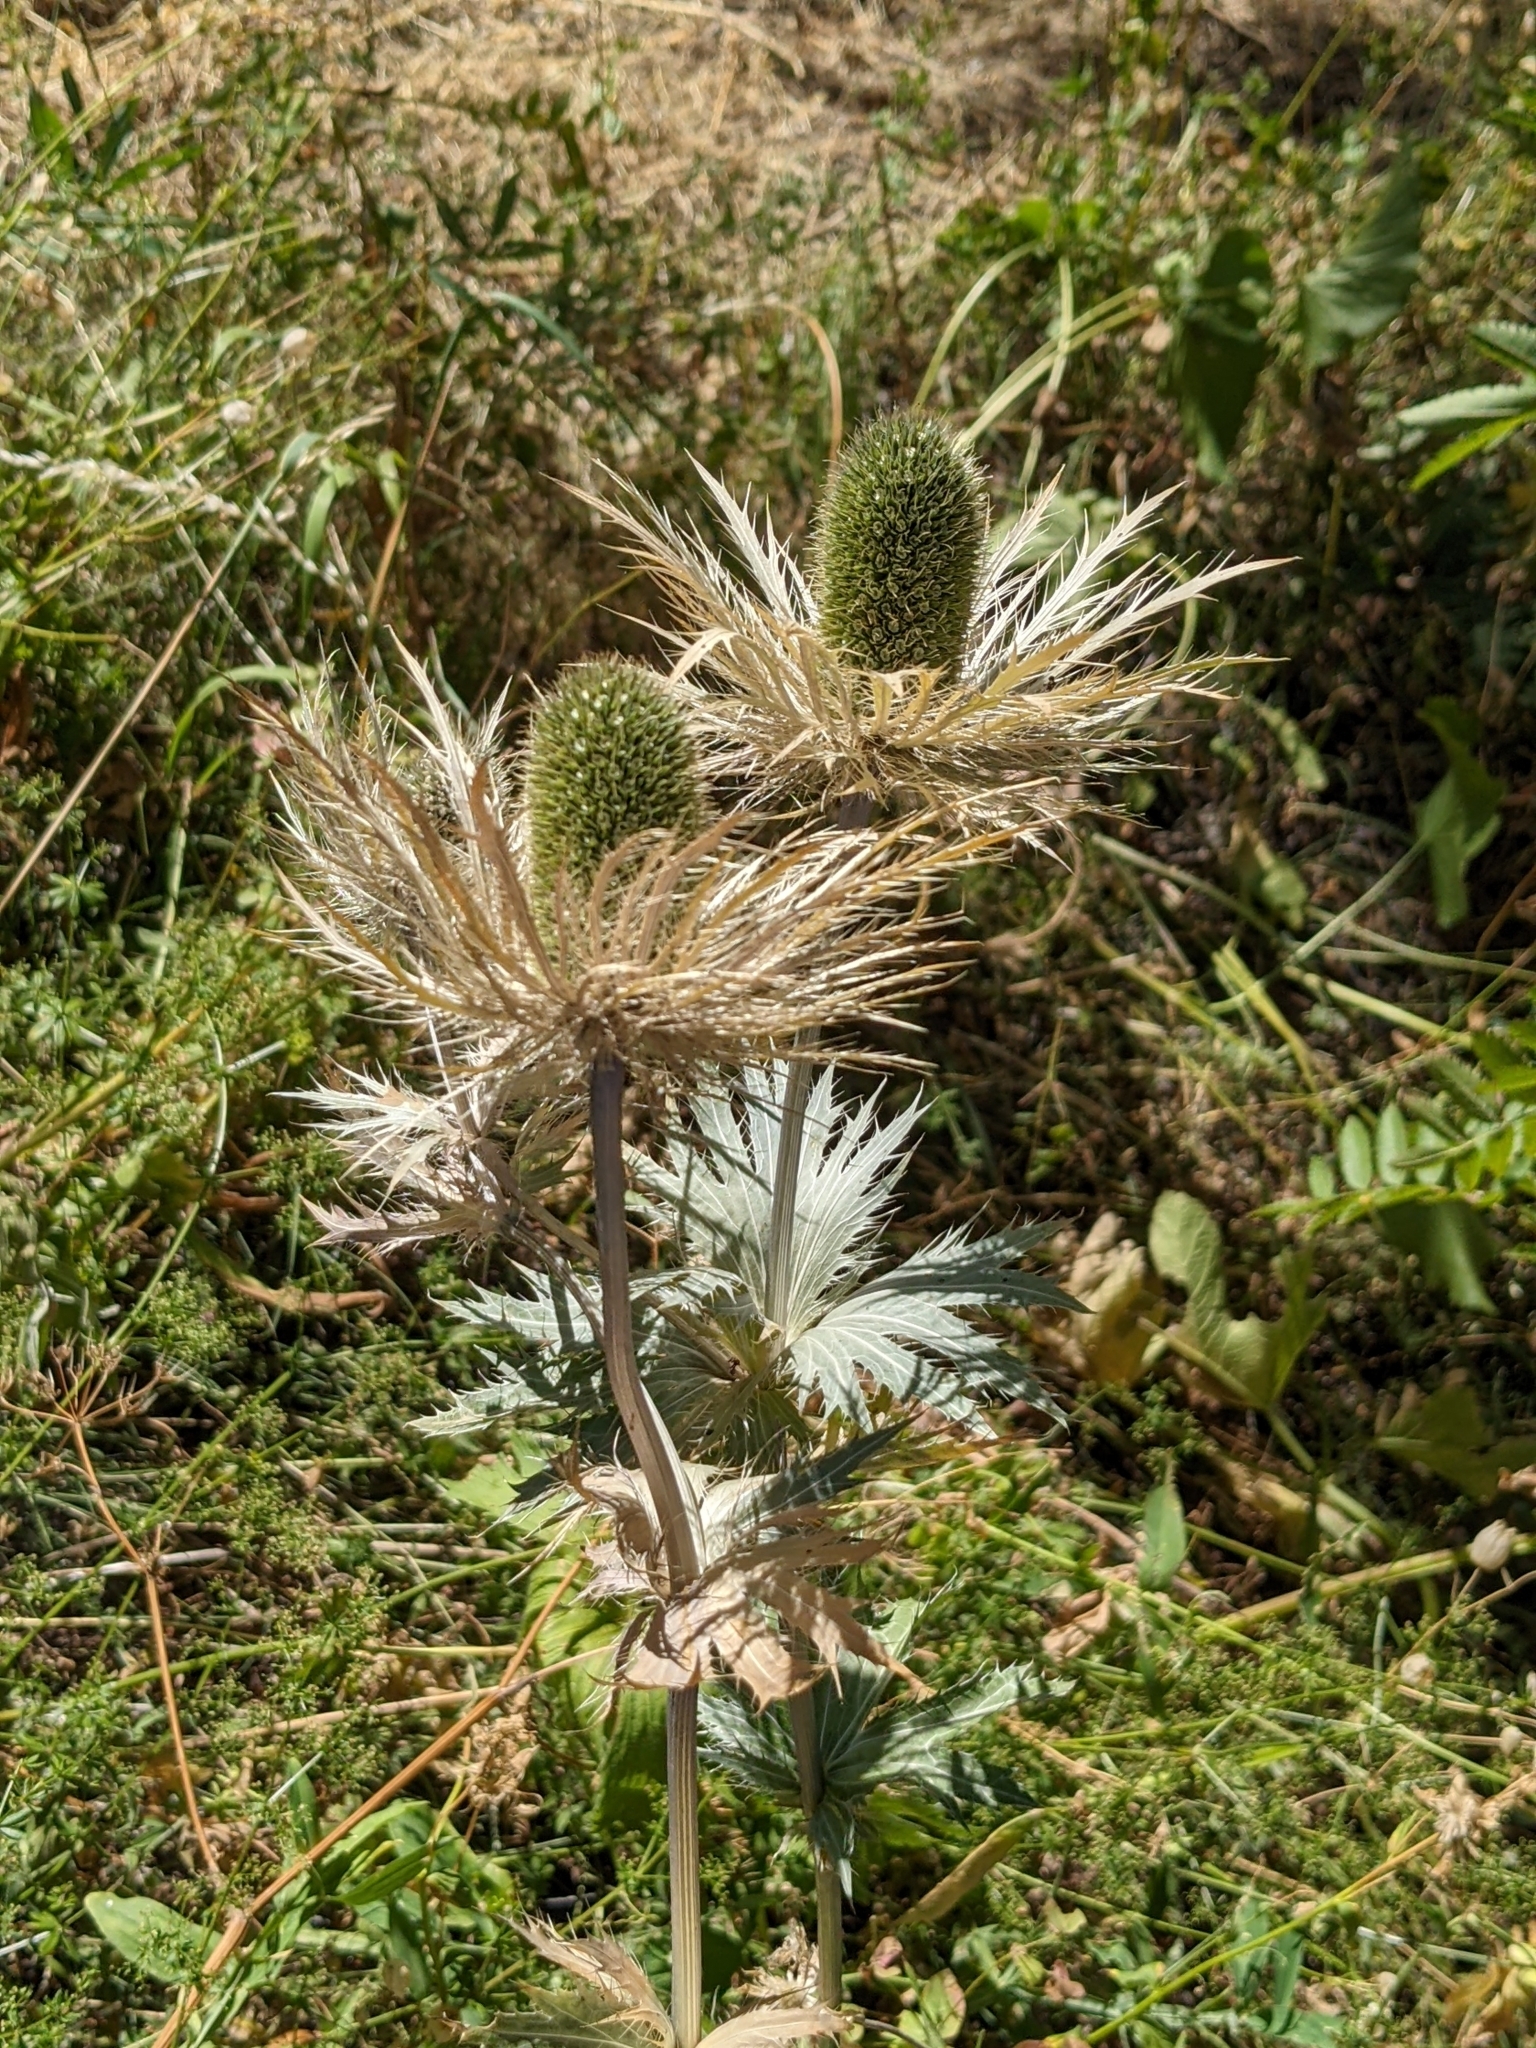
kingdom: Plantae
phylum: Tracheophyta
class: Magnoliopsida
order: Apiales
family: Apiaceae
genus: Eryngium
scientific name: Eryngium alpinum
